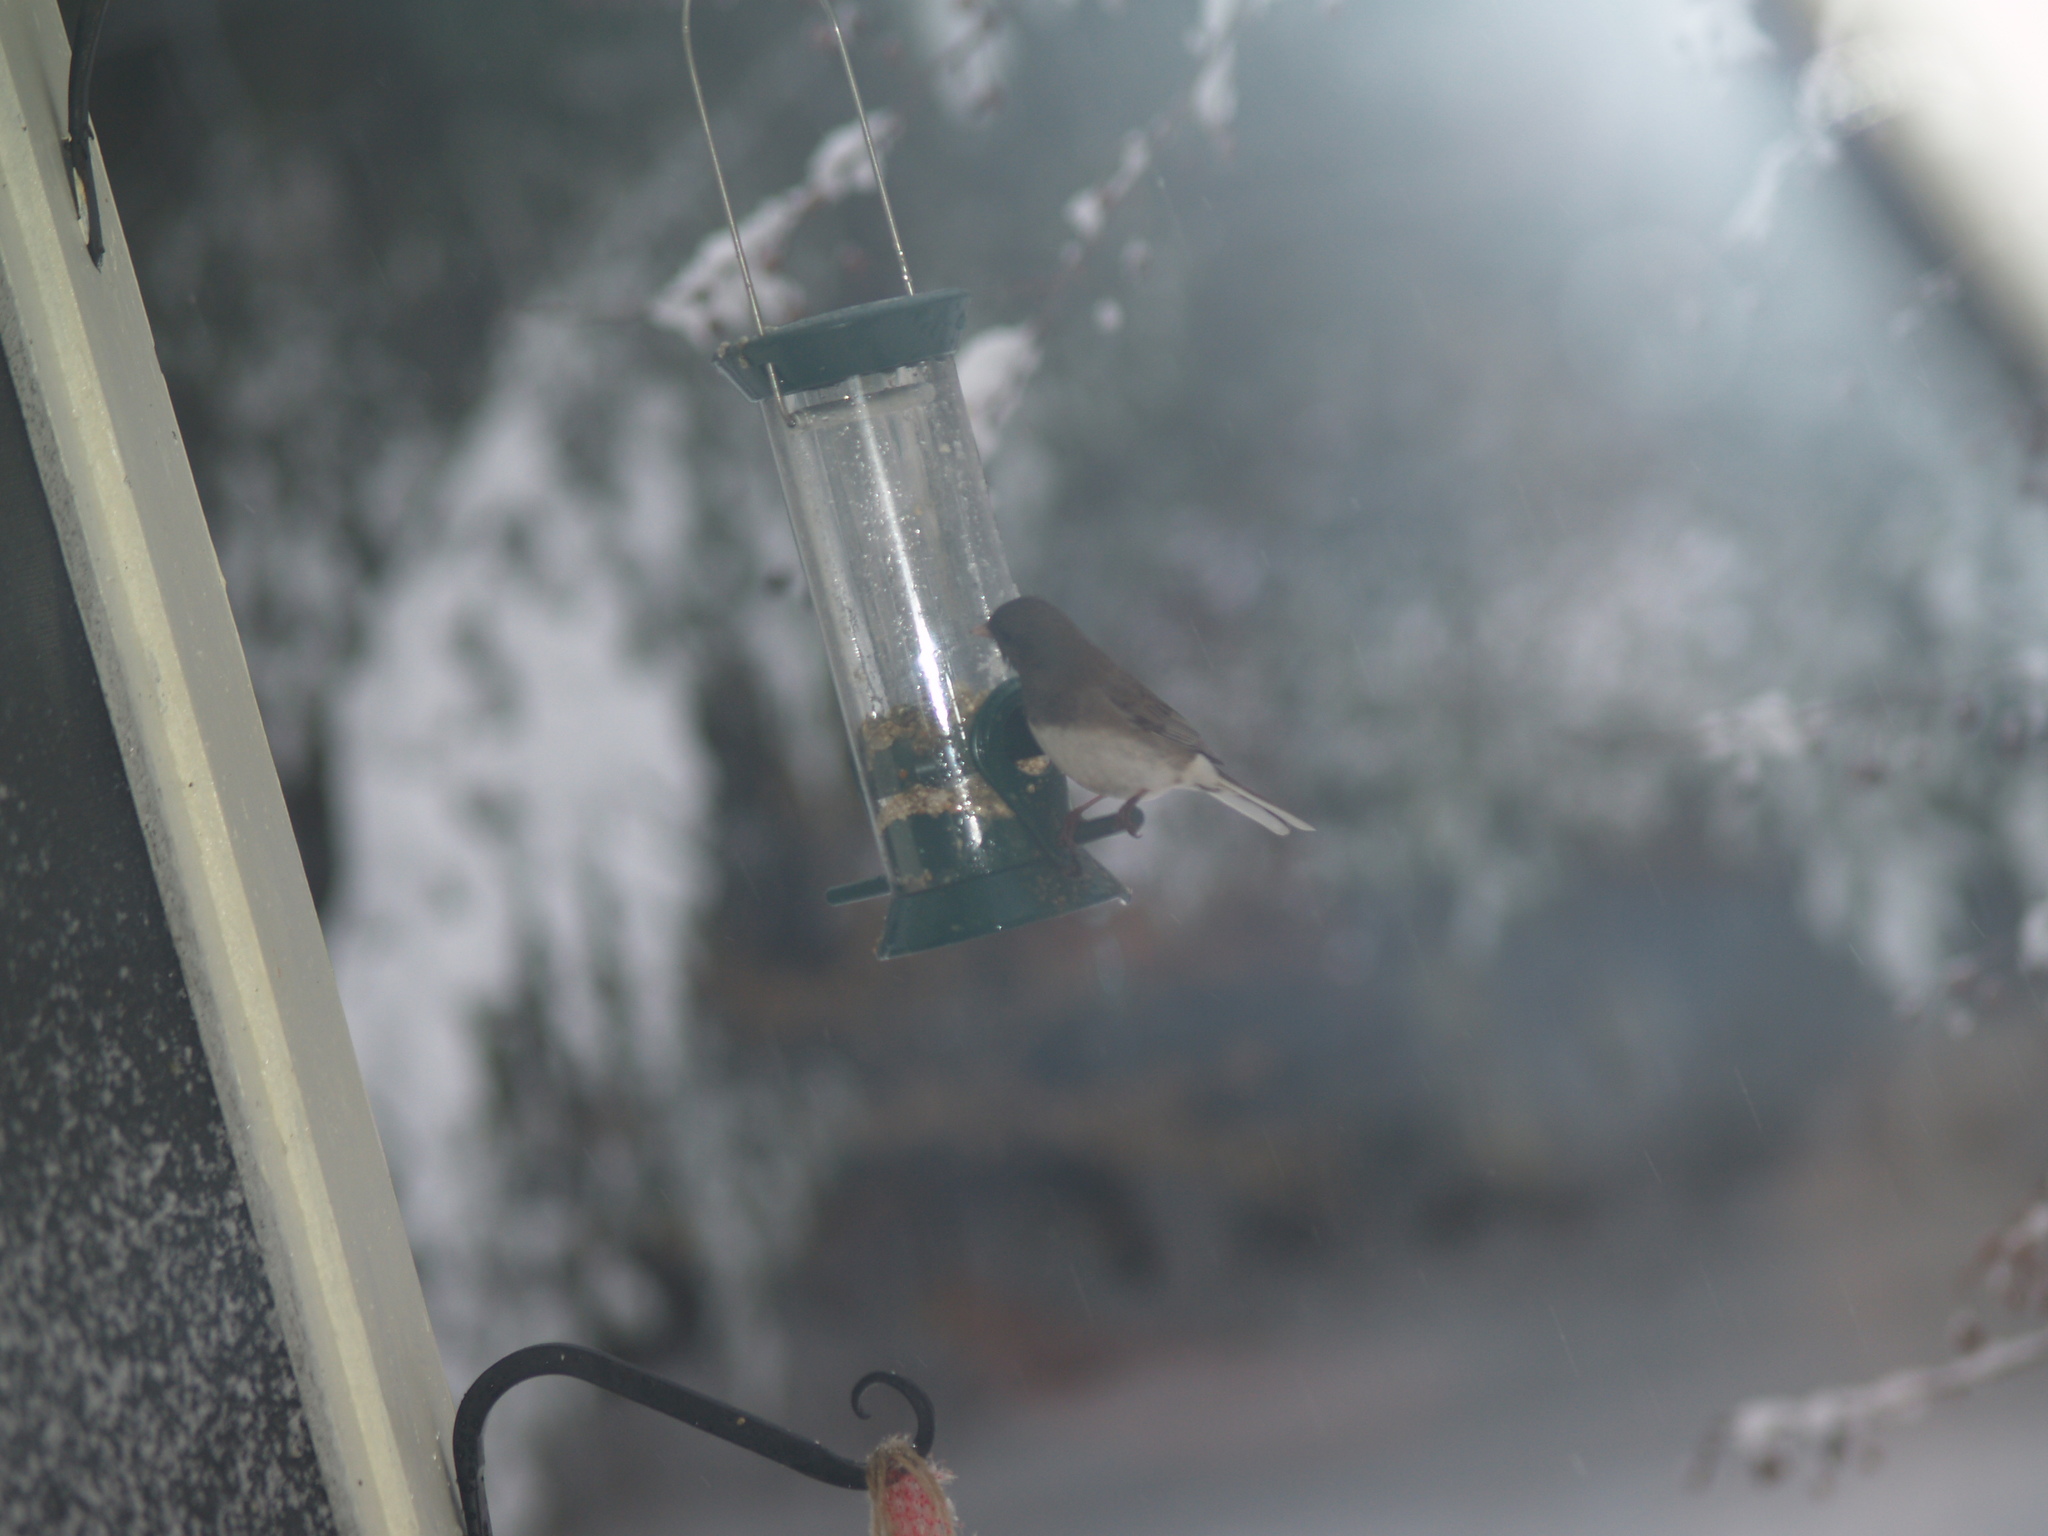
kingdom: Animalia
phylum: Chordata
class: Aves
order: Passeriformes
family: Passerellidae
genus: Junco
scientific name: Junco hyemalis
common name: Dark-eyed junco
